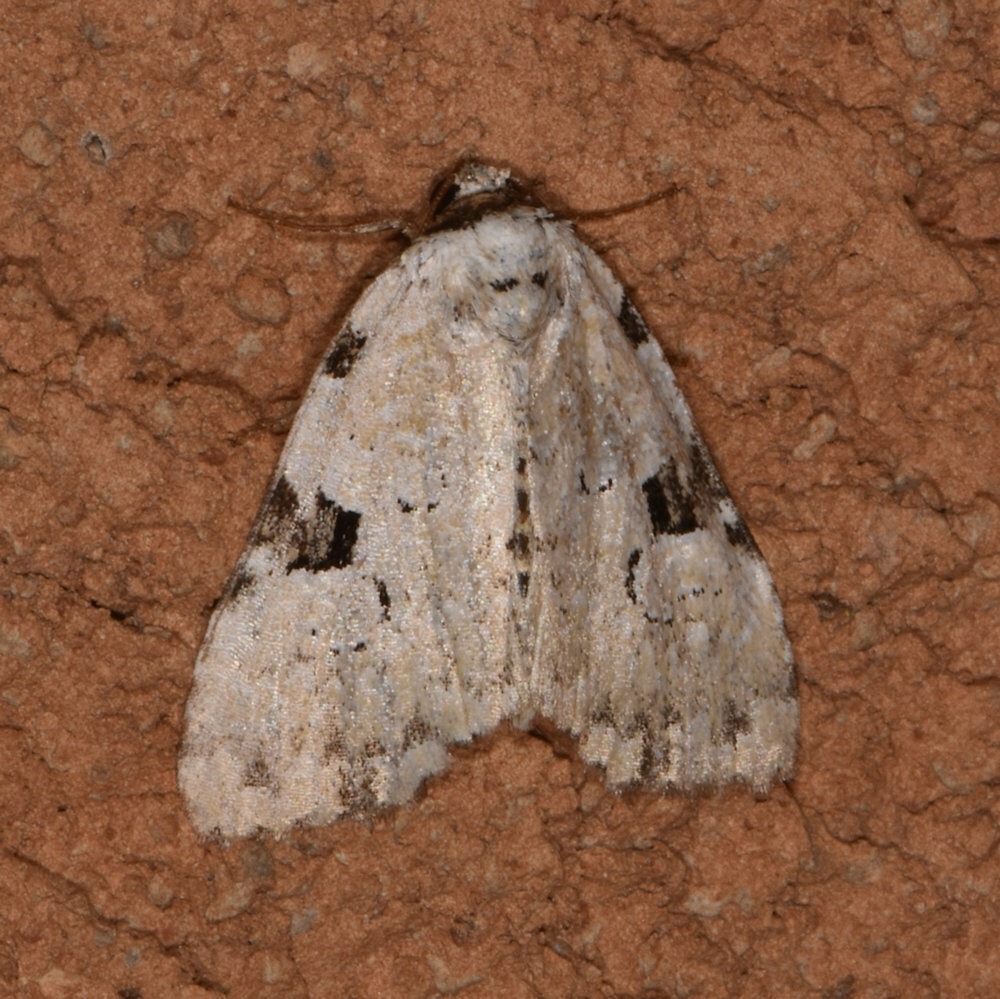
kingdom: Animalia
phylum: Arthropoda
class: Insecta
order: Lepidoptera
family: Noctuidae
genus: Leuconycta
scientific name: Leuconycta diphteroides
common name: Green leuconycta moth
